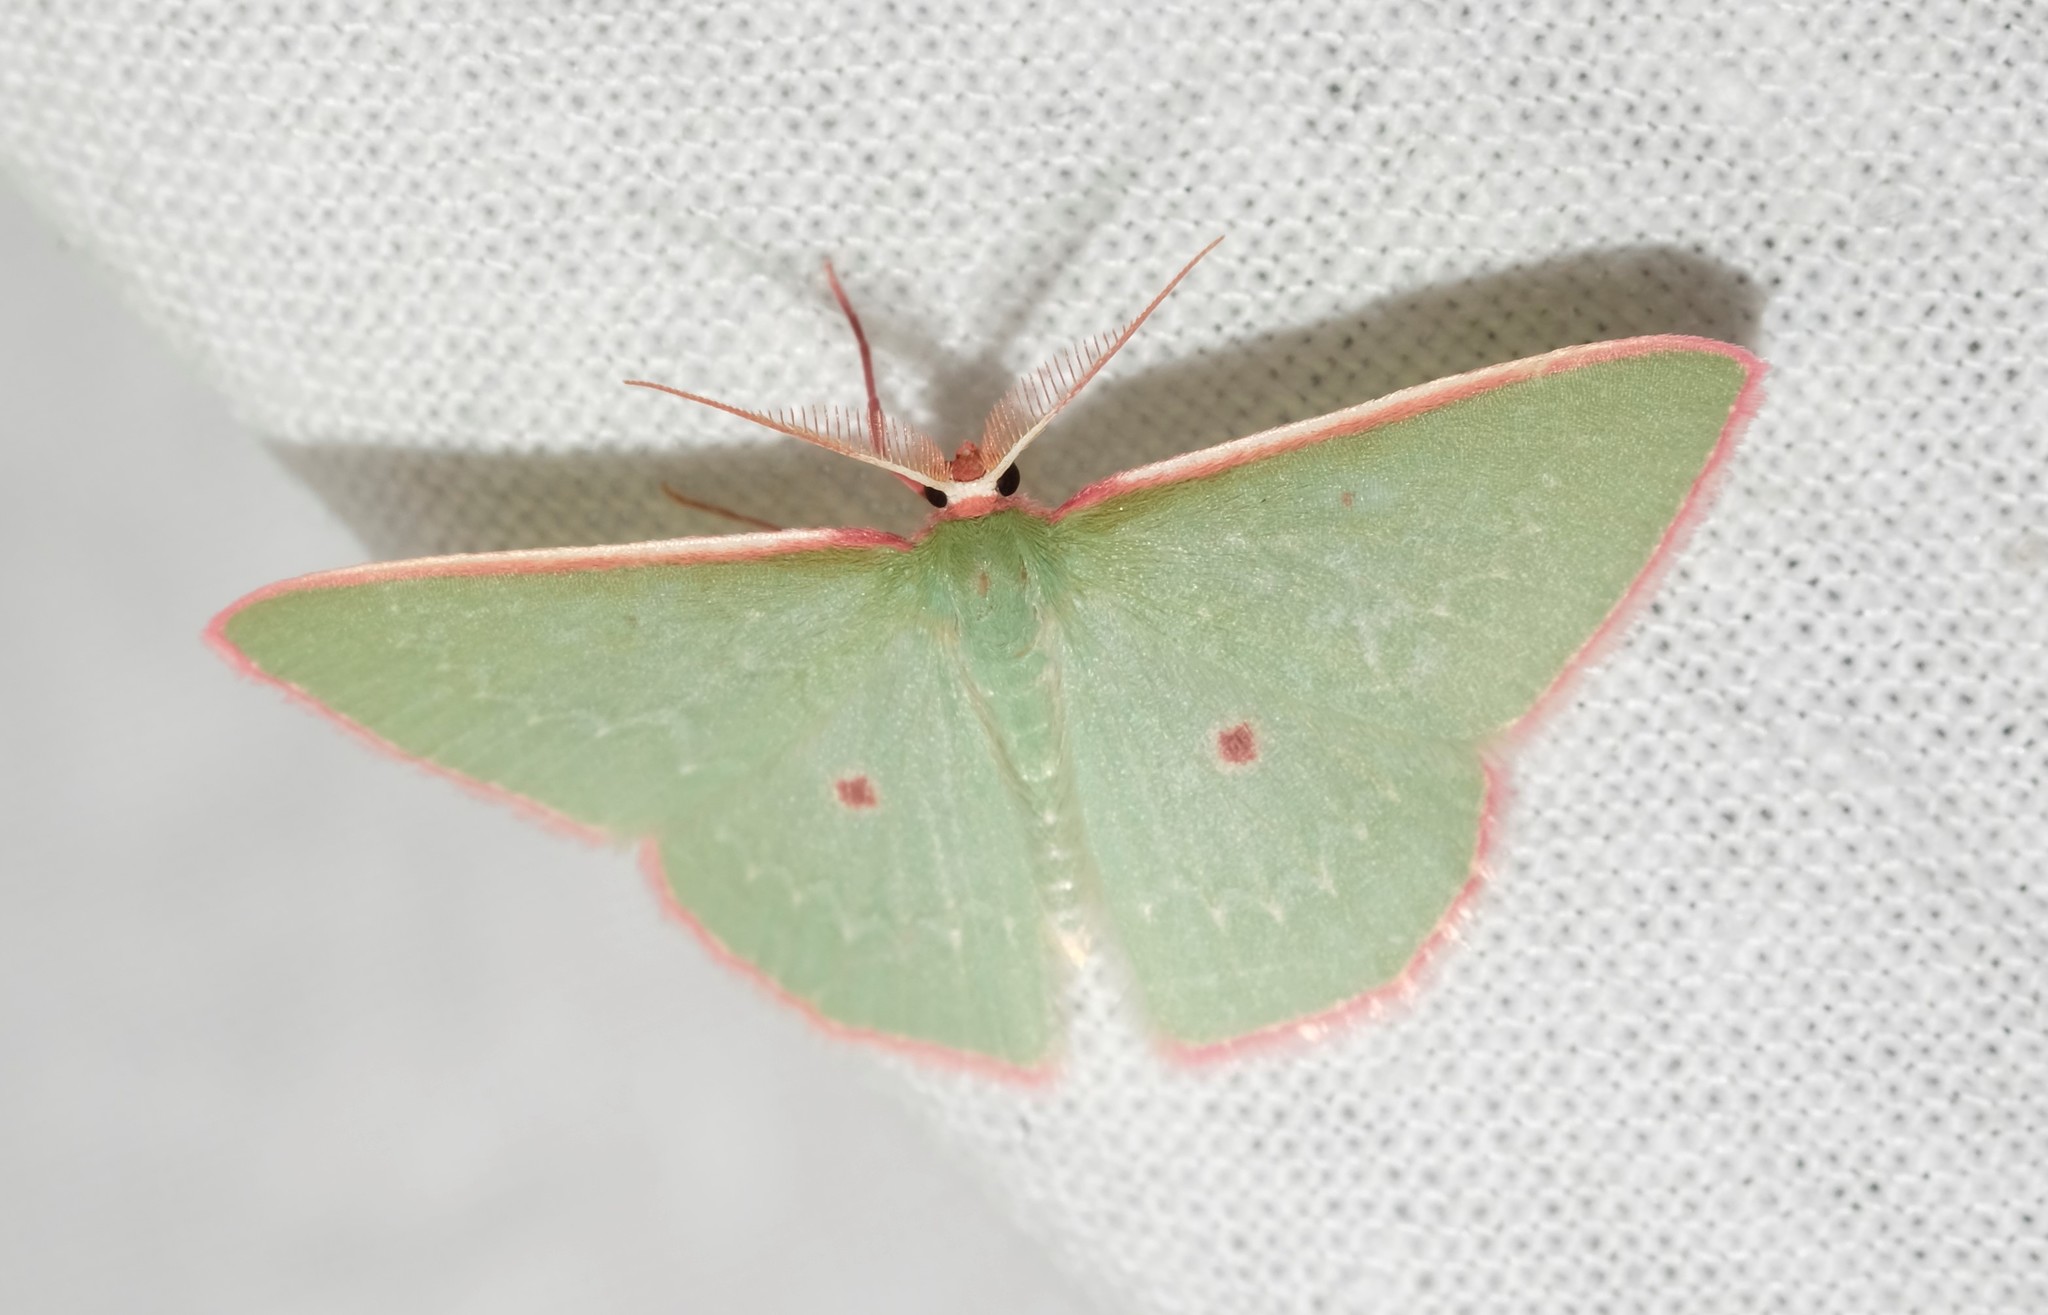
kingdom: Animalia
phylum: Arthropoda
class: Insecta
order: Lepidoptera
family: Geometridae
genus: Chlorocoma
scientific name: Chlorocoma cadmaria
